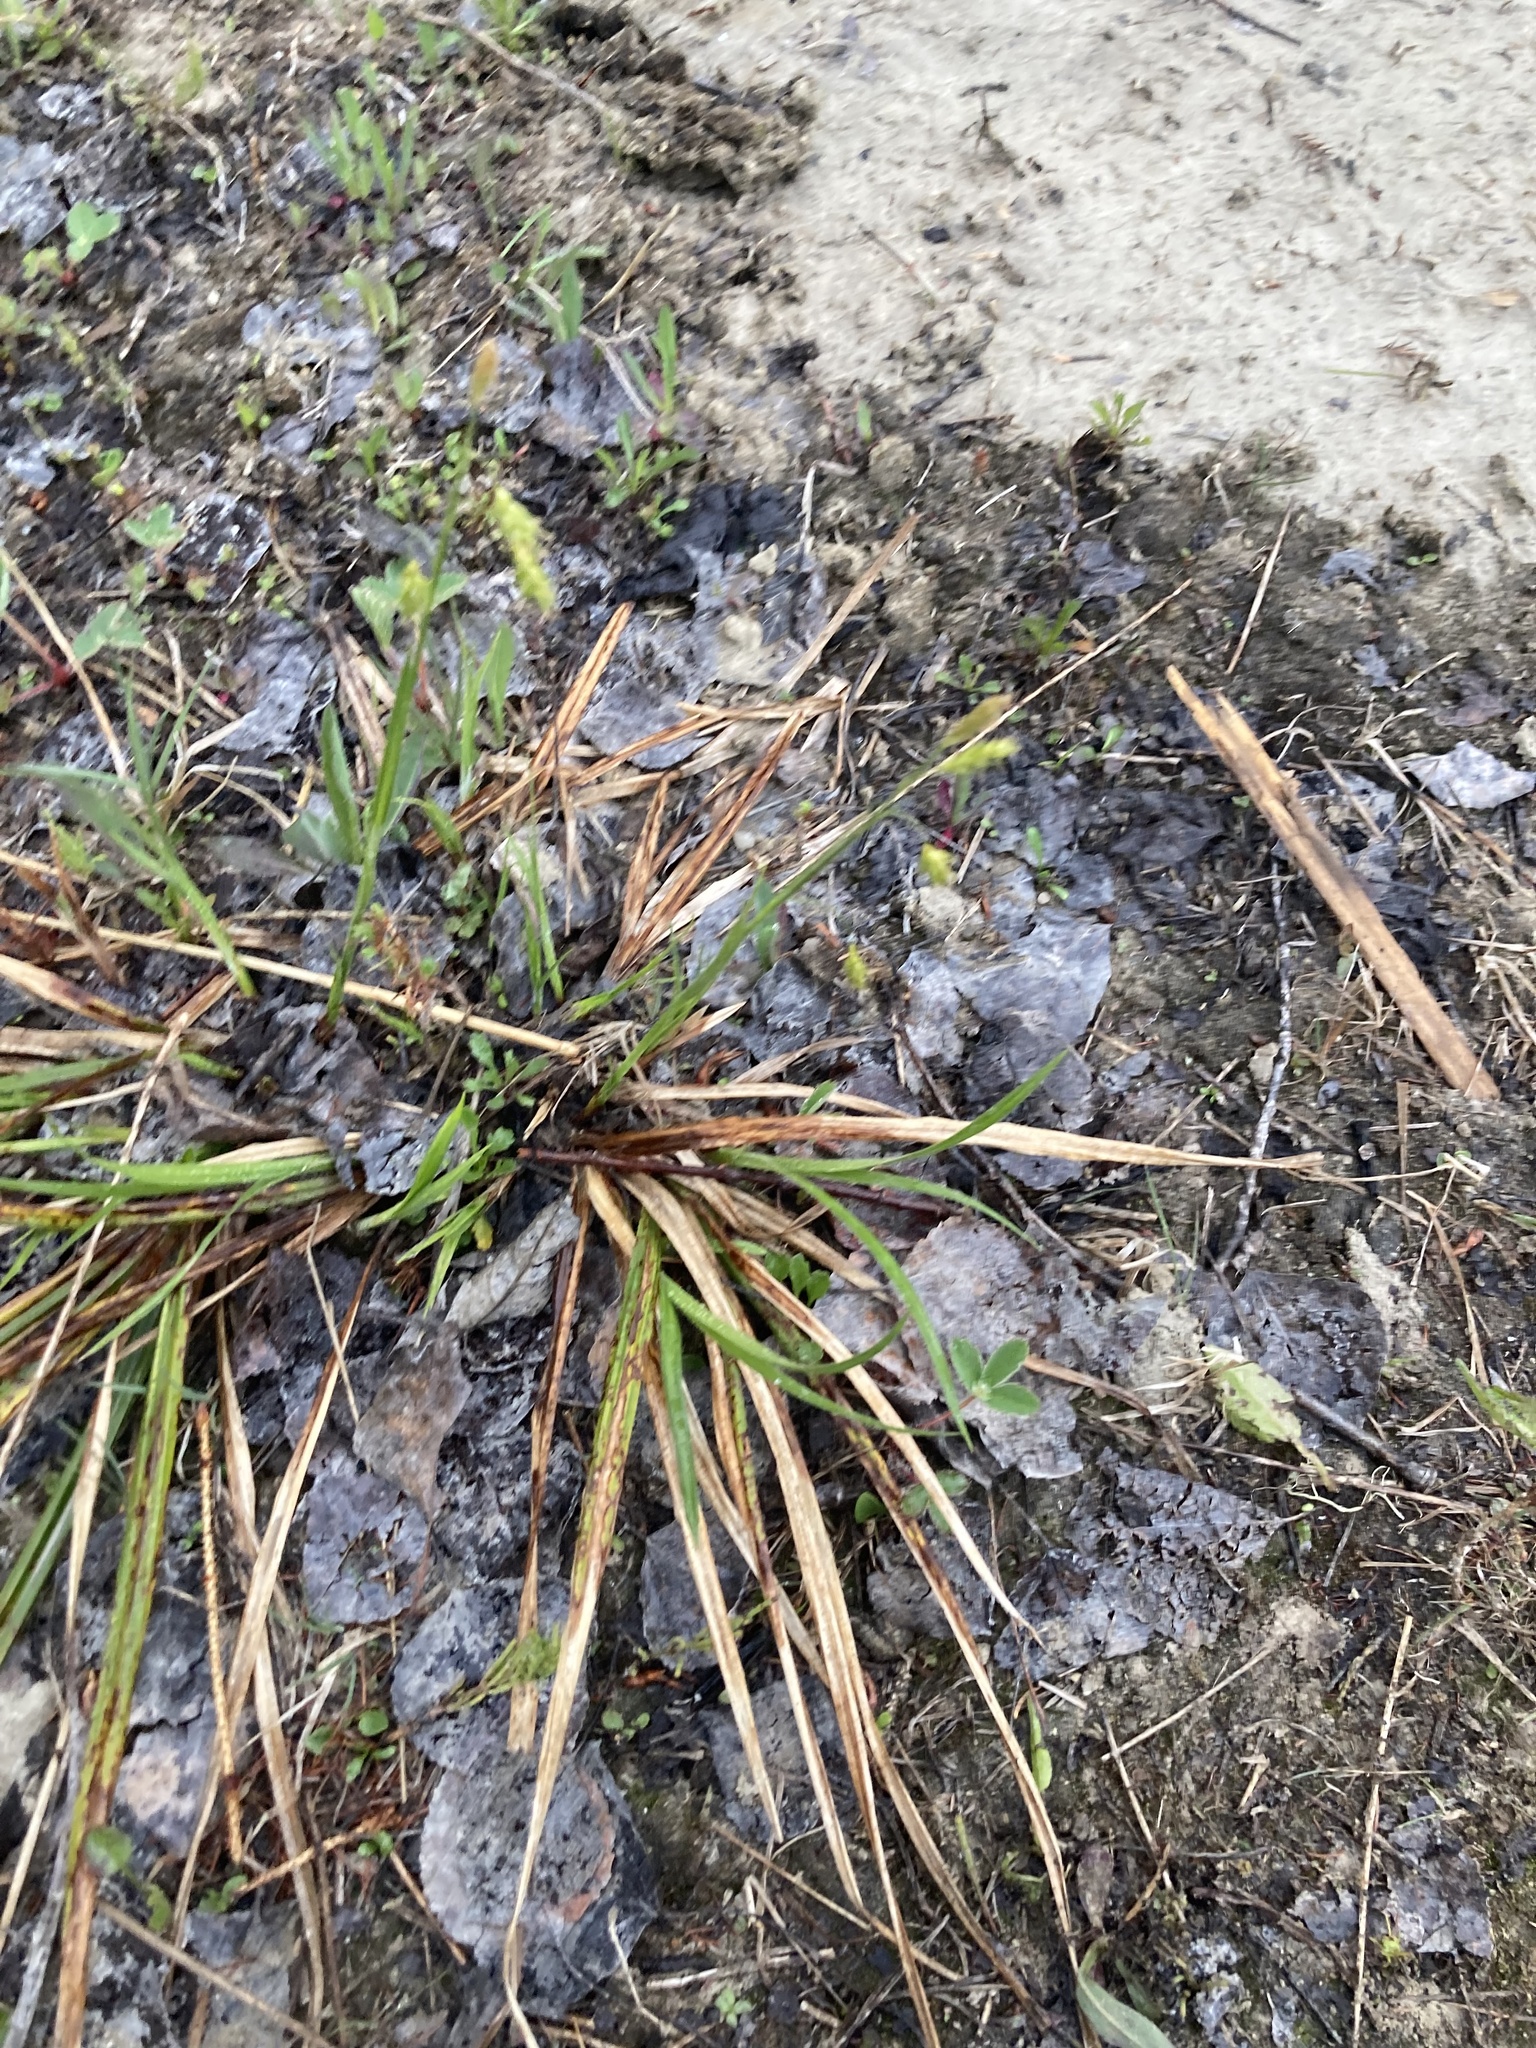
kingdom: Plantae
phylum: Tracheophyta
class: Liliopsida
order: Poales
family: Cyperaceae
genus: Carex
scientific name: Carex castanea
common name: Chestnut sedge
